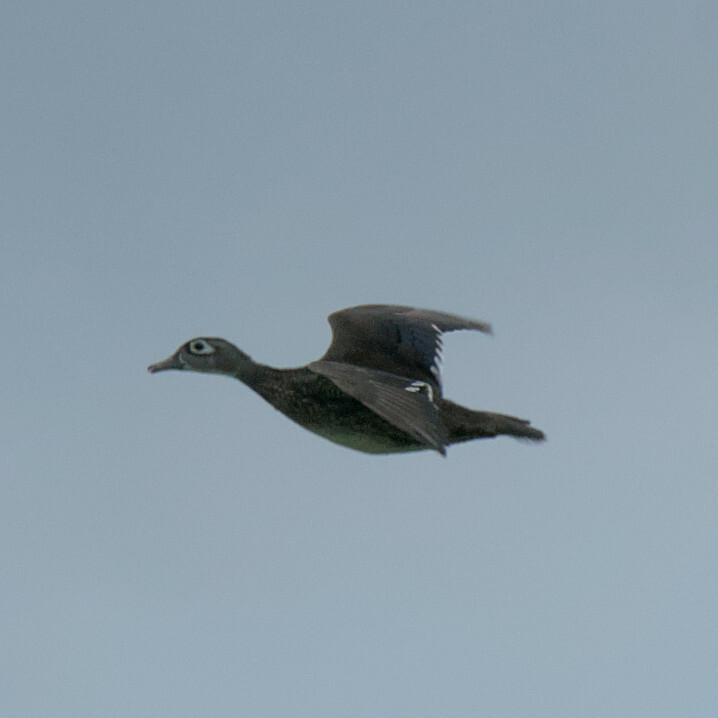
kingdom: Animalia
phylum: Chordata
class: Aves
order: Anseriformes
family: Anatidae
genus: Aix
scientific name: Aix sponsa
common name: Wood duck
